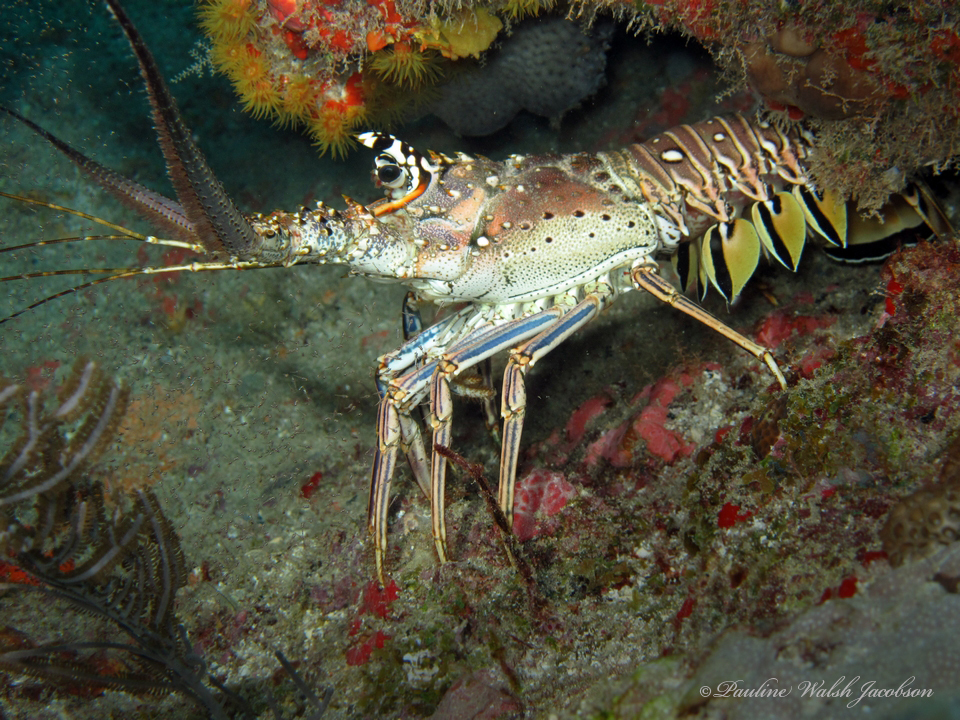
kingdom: Animalia
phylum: Arthropoda
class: Malacostraca
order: Decapoda
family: Palinuridae
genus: Panulirus
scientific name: Panulirus argus
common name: Caribbean spiny lobster
